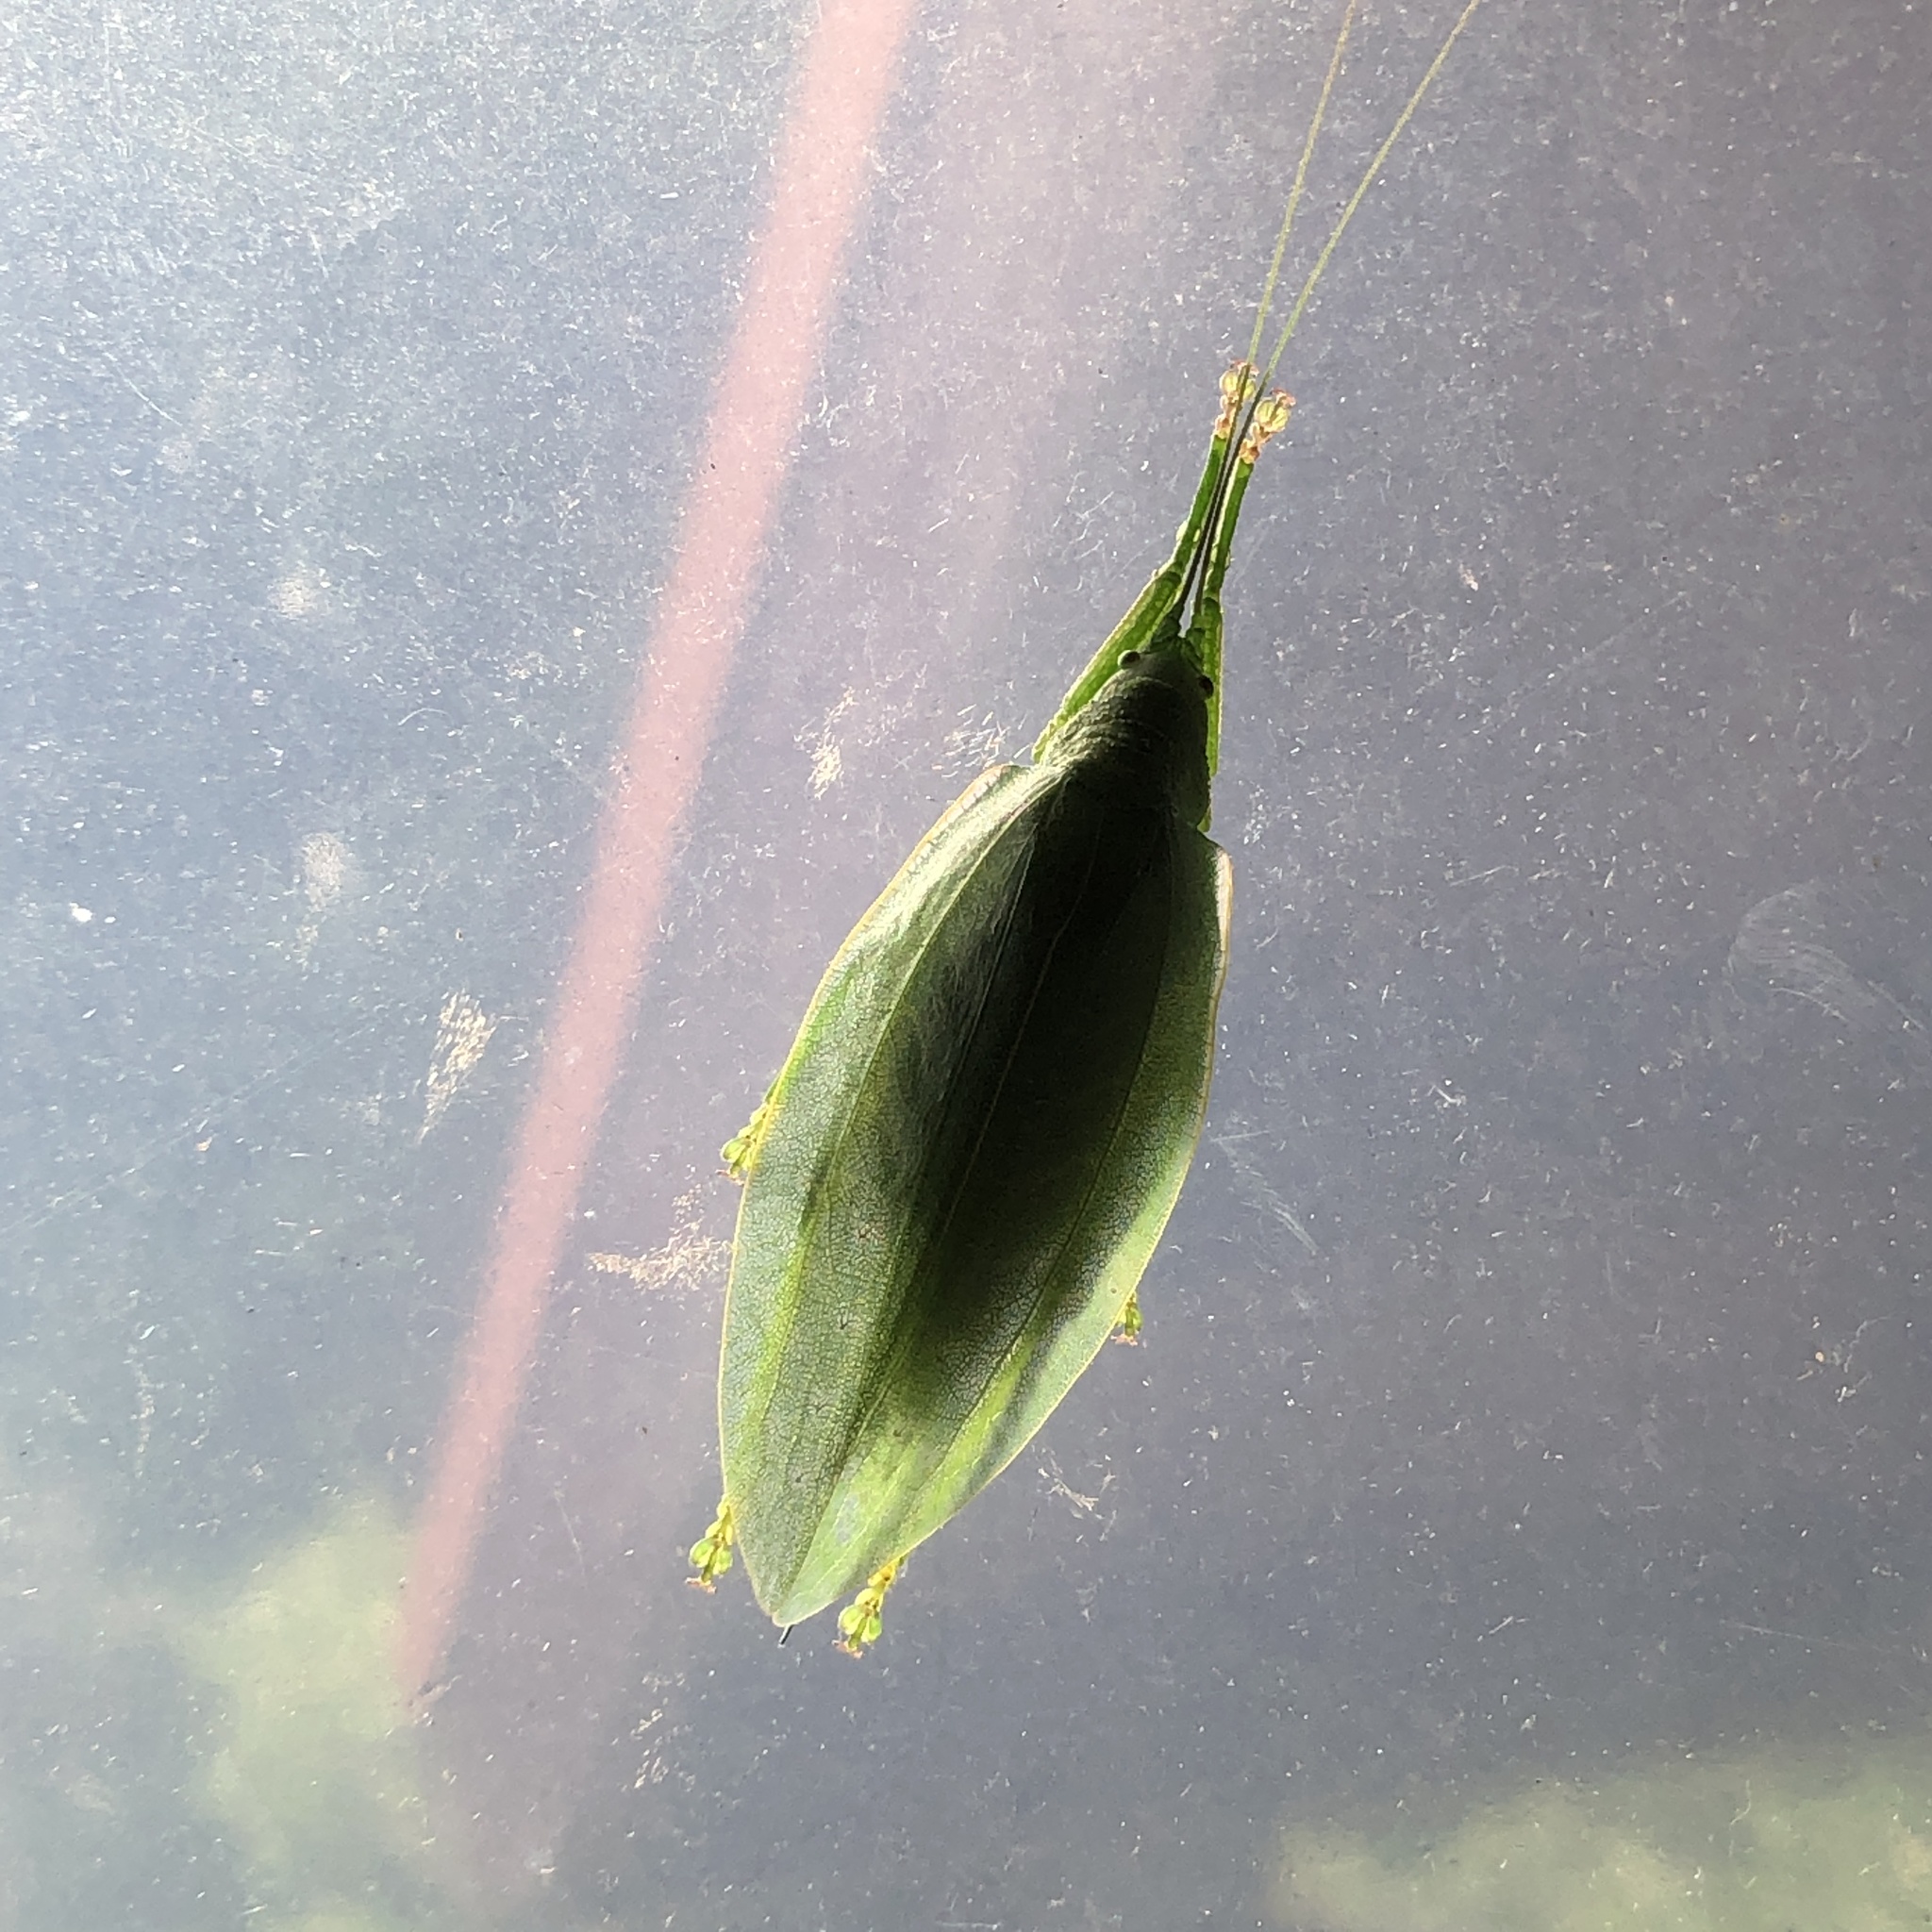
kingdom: Animalia
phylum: Arthropoda
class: Insecta
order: Orthoptera
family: Tettigoniidae
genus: Phyllomimus
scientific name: Phyllomimus sinicus
